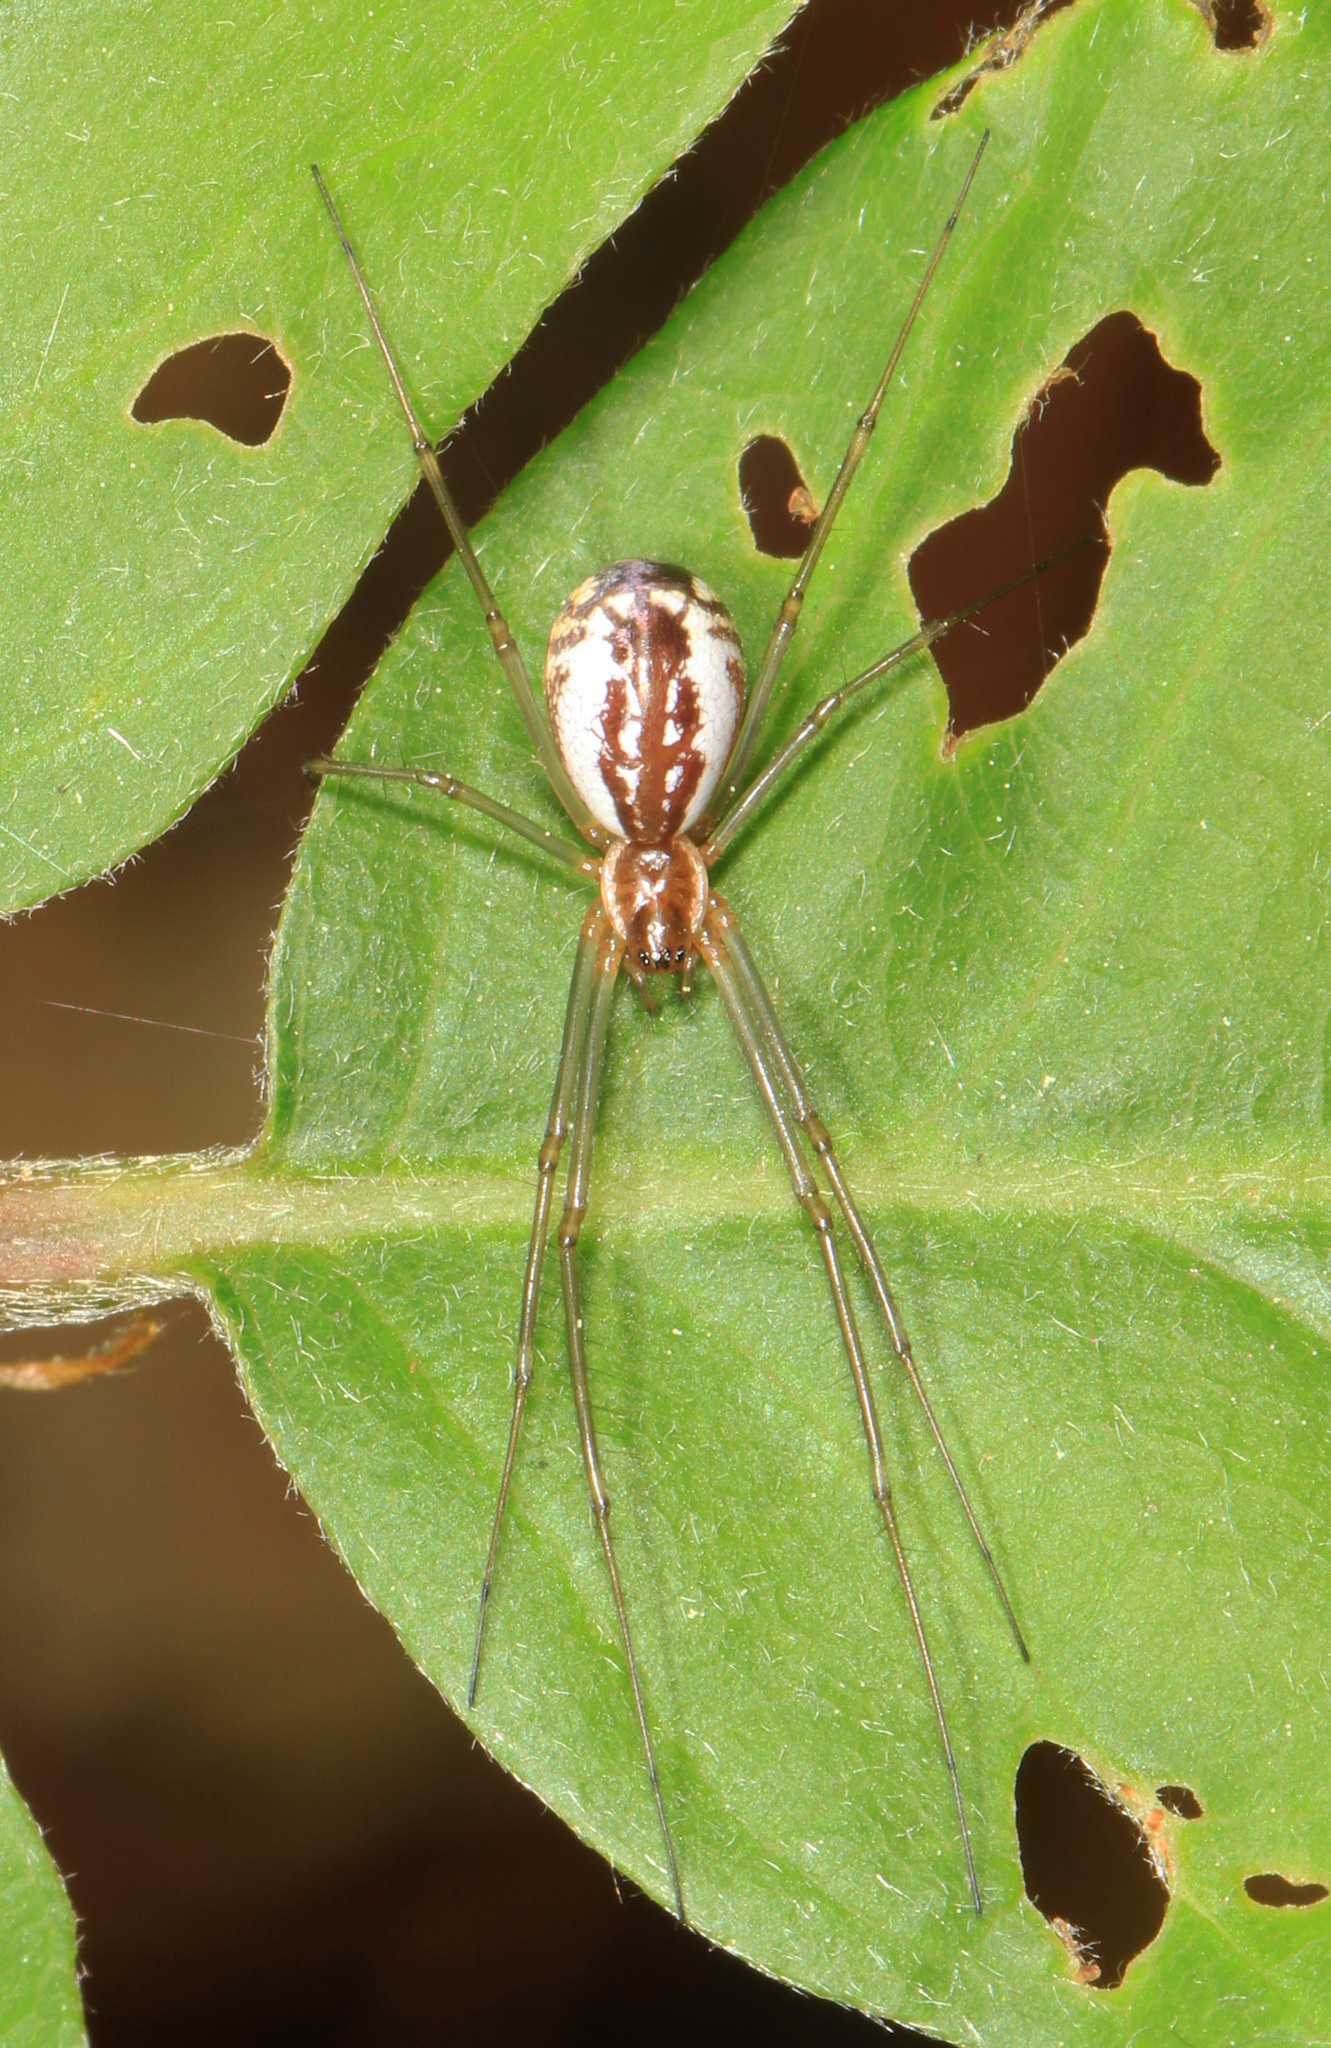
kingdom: Animalia
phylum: Arthropoda
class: Arachnida
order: Araneae
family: Linyphiidae
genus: Neriene
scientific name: Neriene radiata
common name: Filmy dome spider
